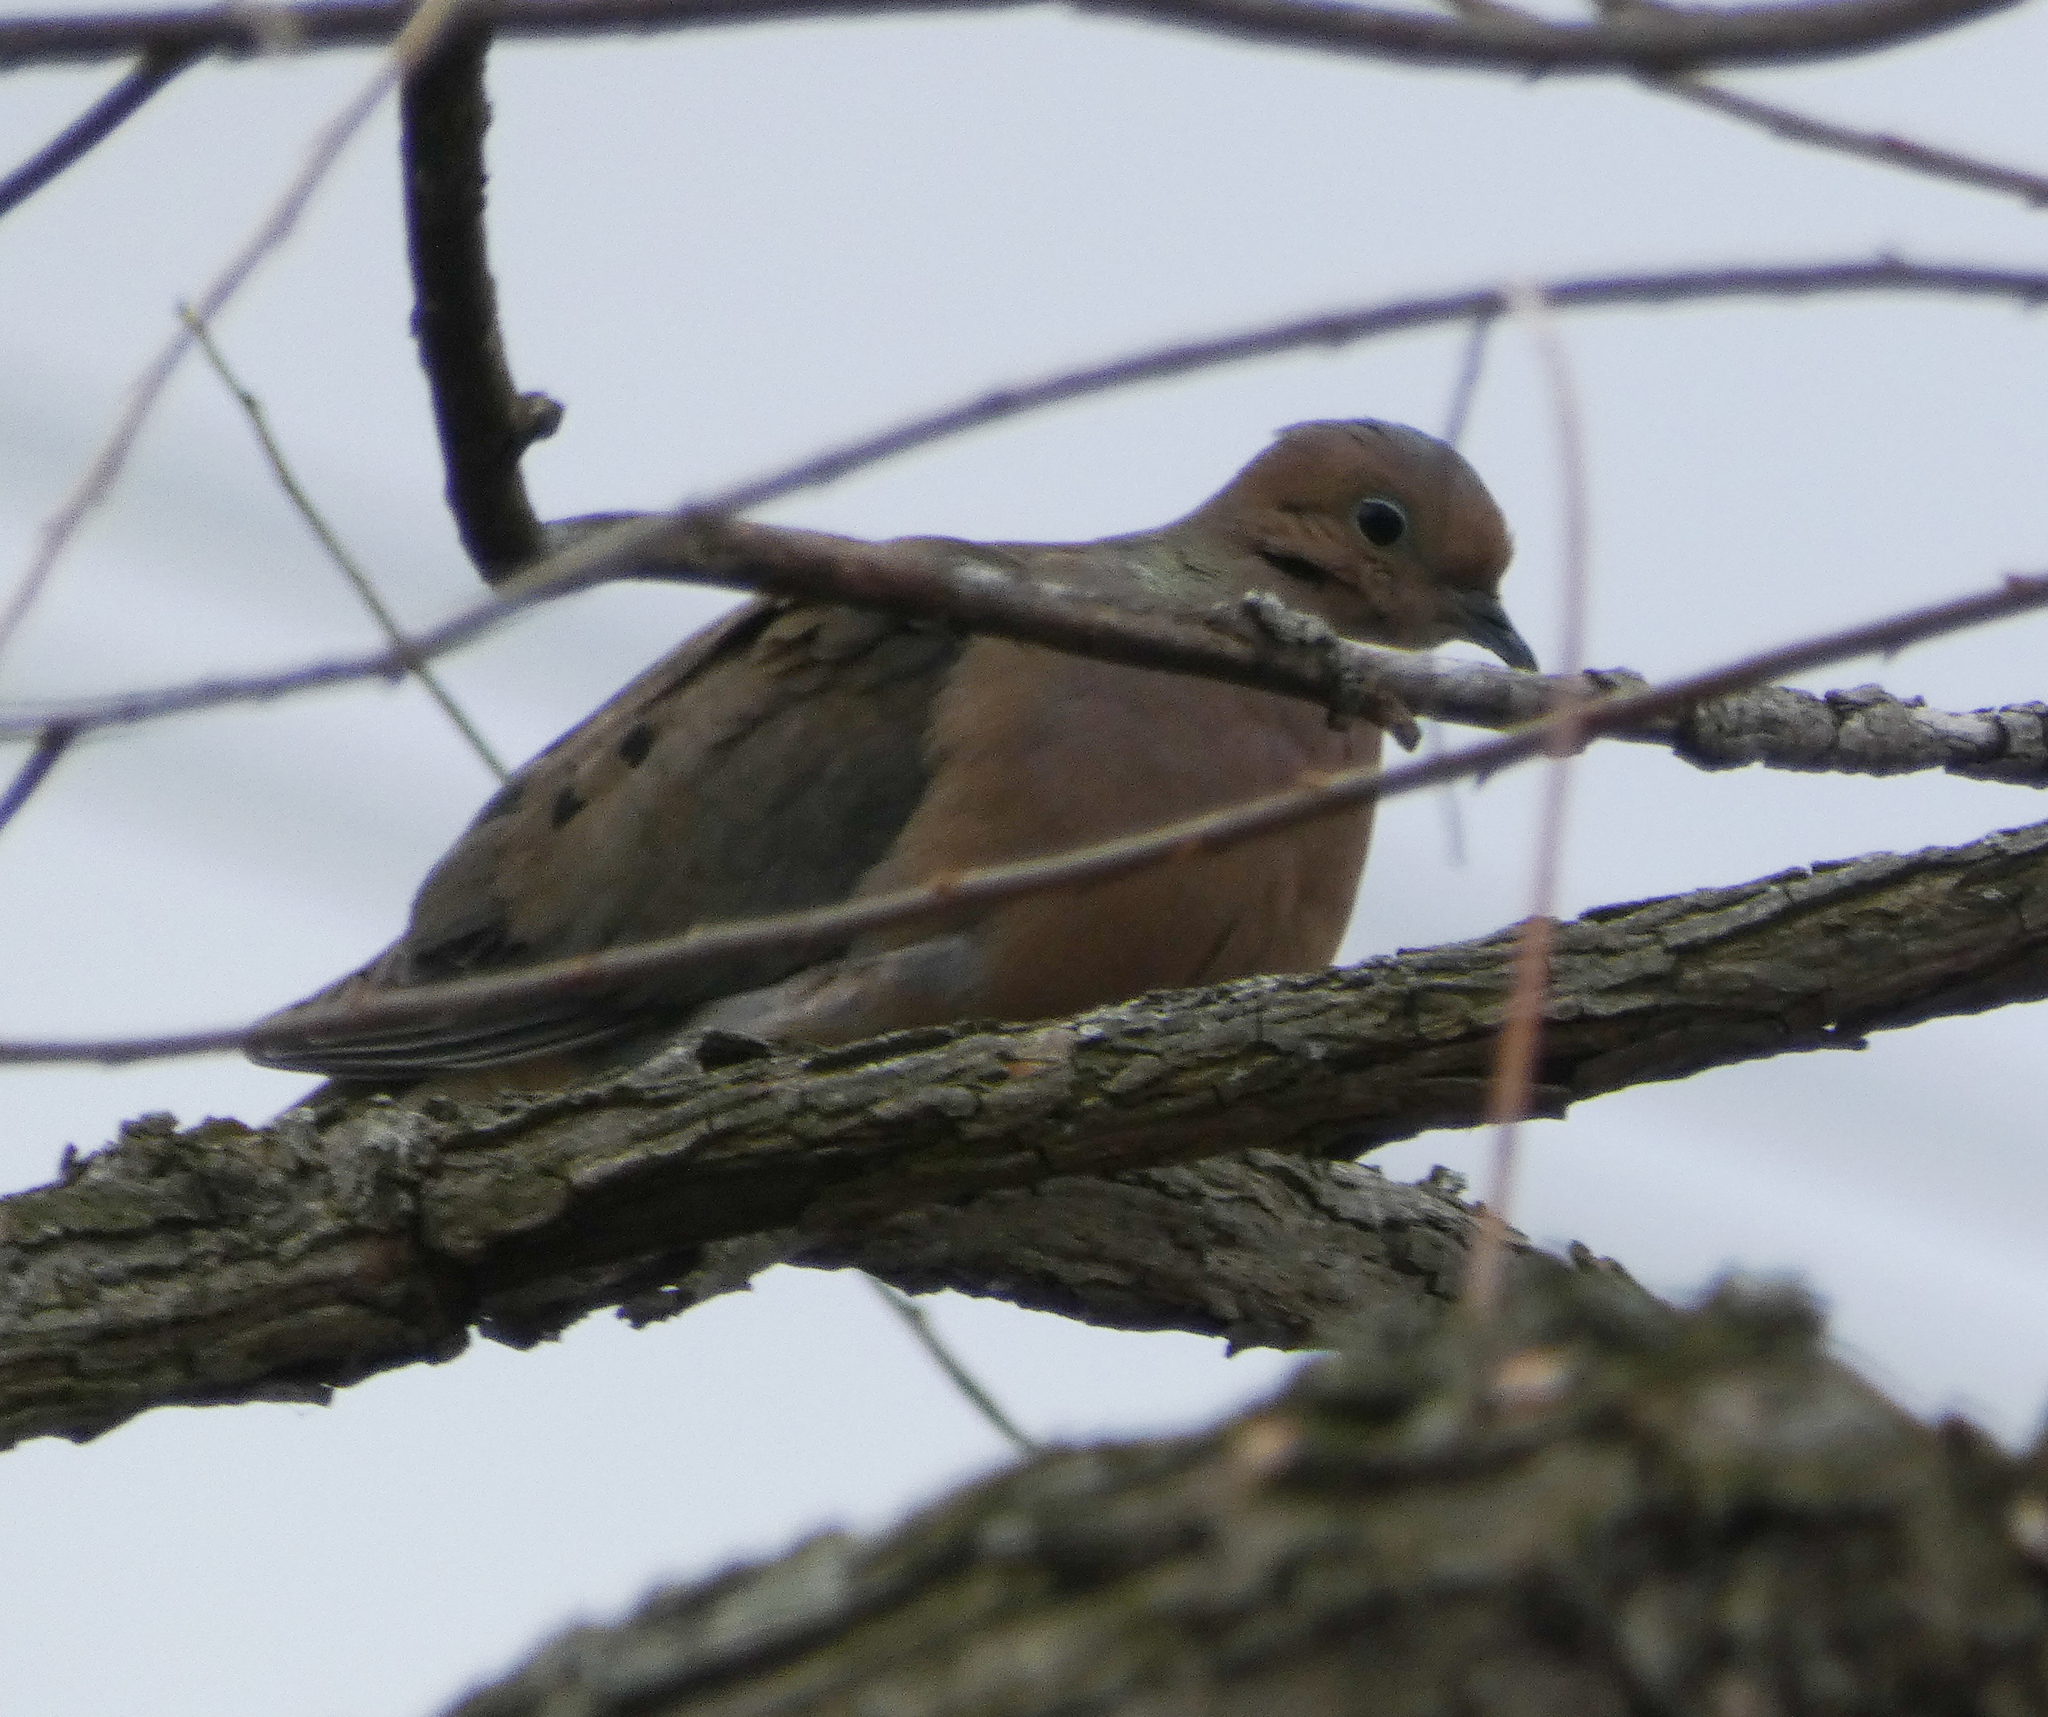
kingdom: Animalia
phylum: Chordata
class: Aves
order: Columbiformes
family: Columbidae
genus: Zenaida
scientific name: Zenaida macroura
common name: Mourning dove
